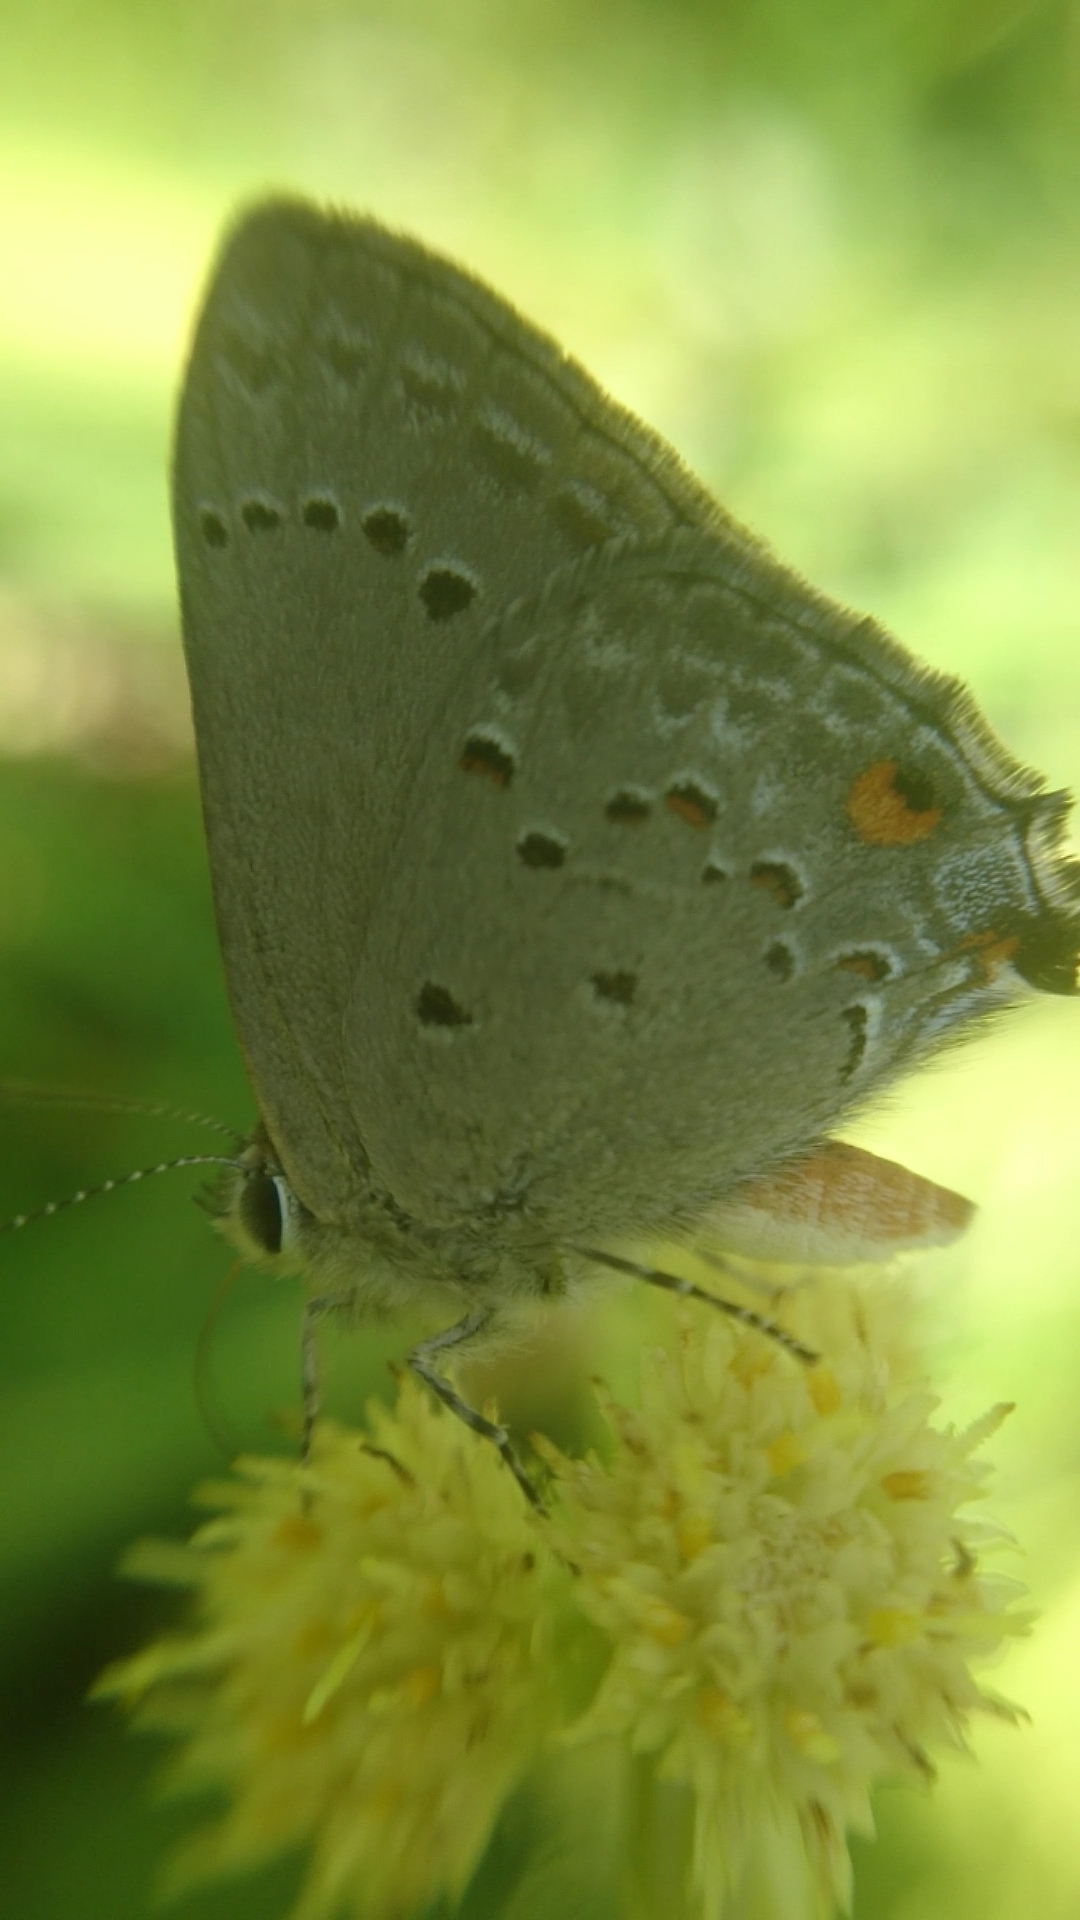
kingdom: Animalia
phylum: Arthropoda
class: Insecta
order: Lepidoptera
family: Lycaenidae
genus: Strymon
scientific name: Strymon eurytulus
